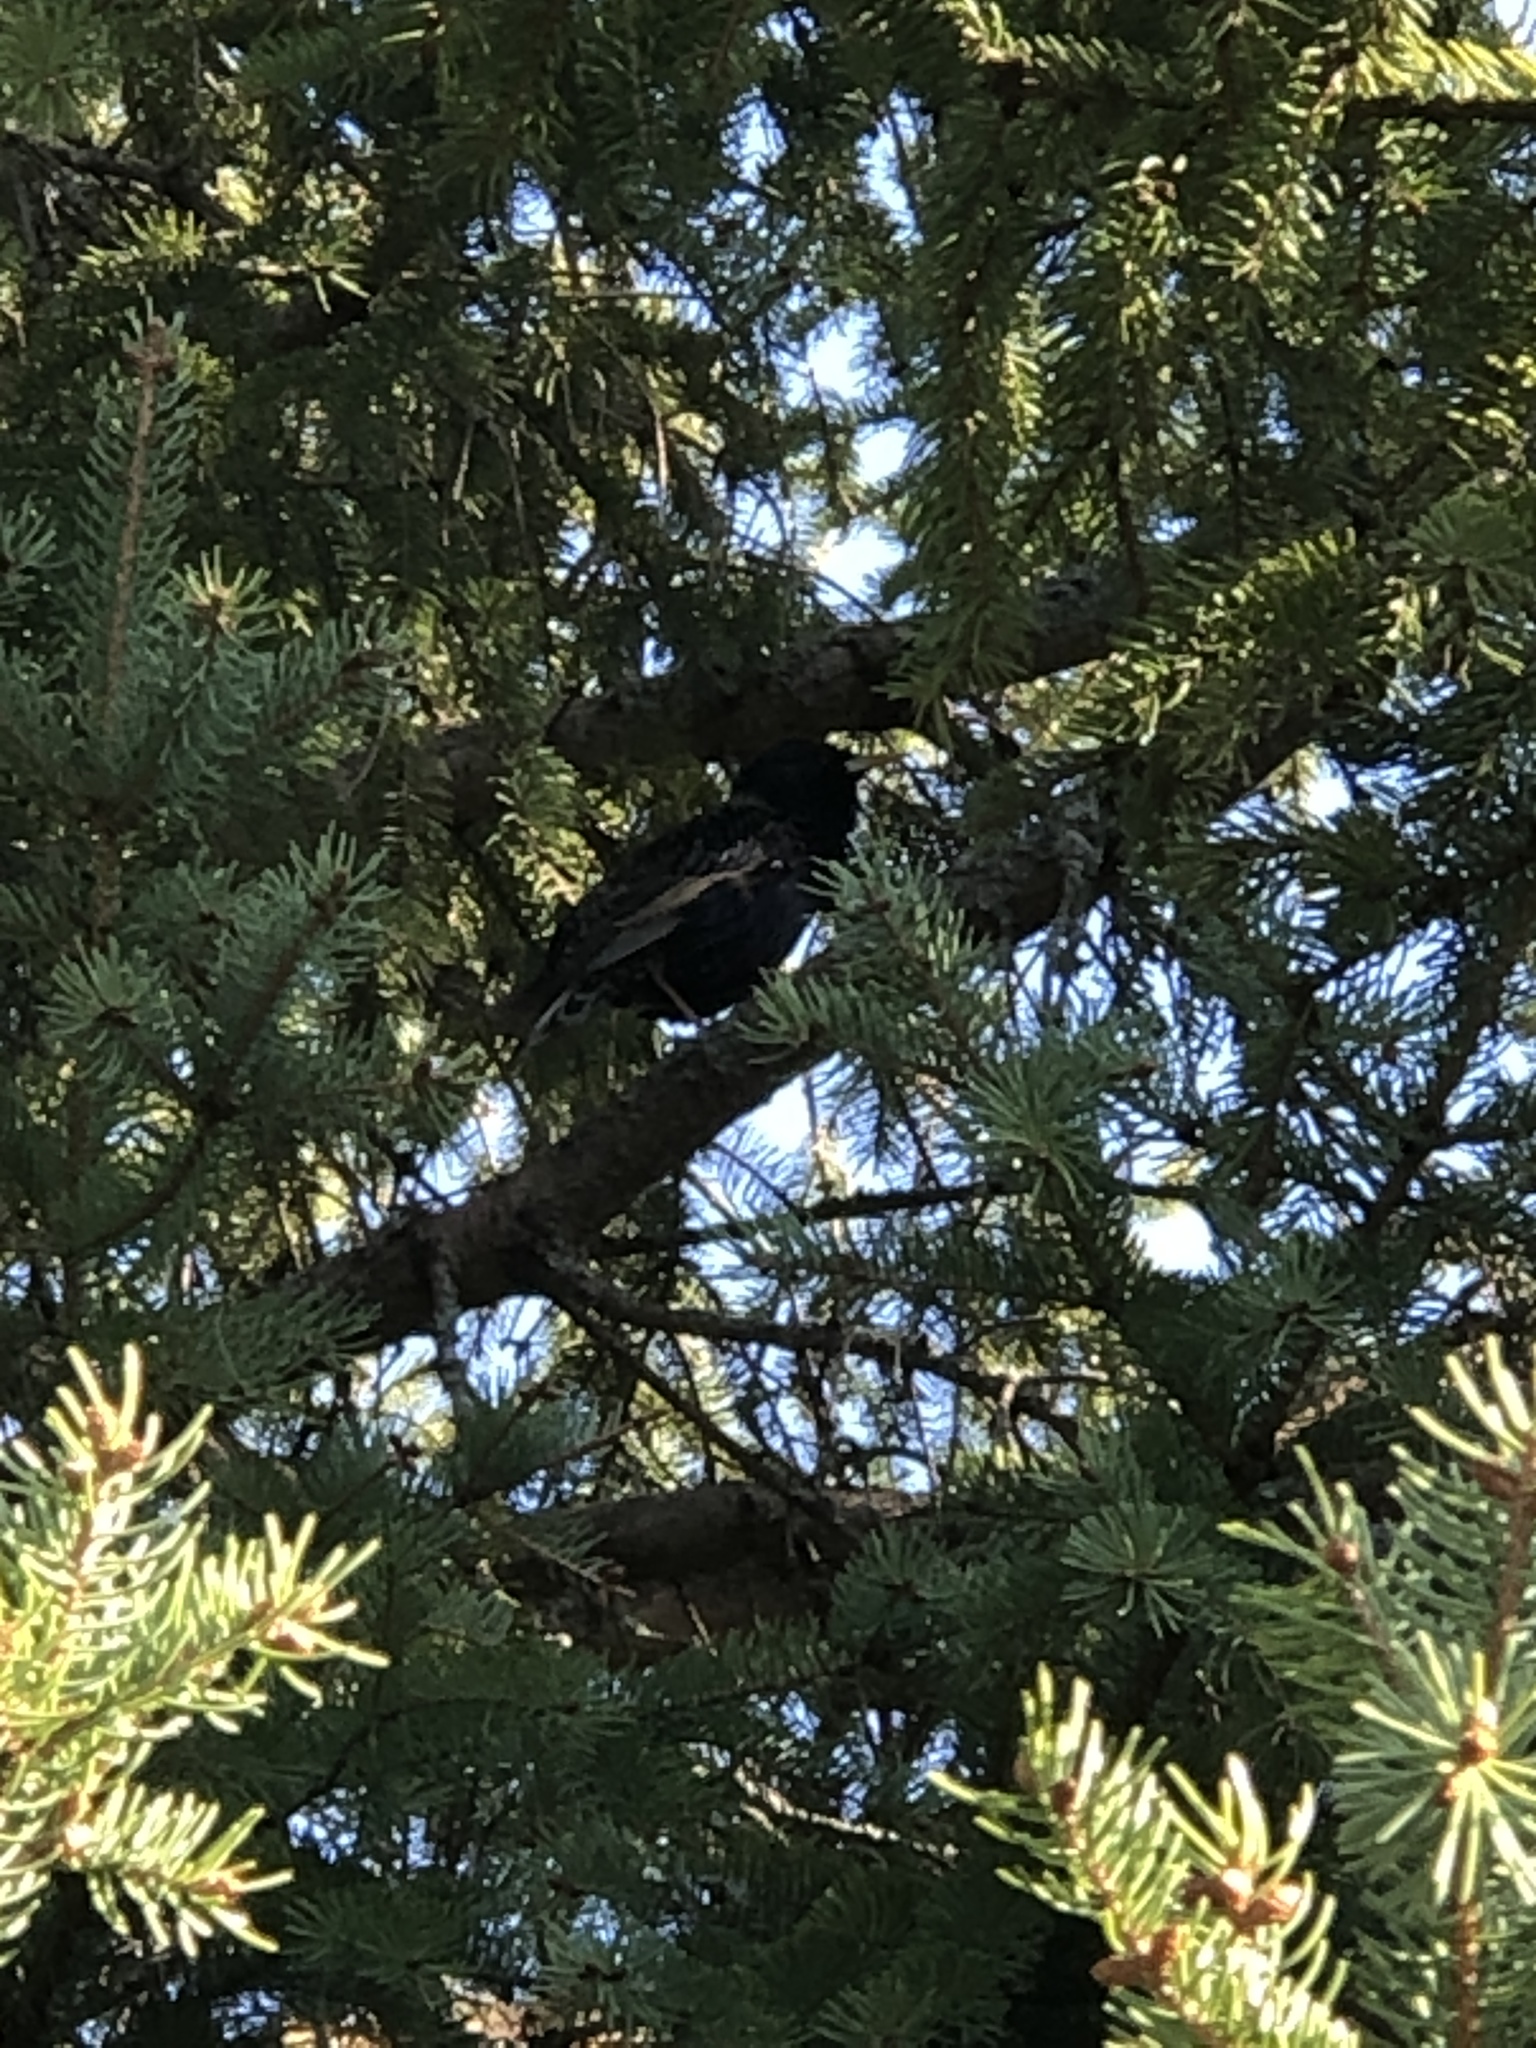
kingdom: Animalia
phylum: Chordata
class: Aves
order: Passeriformes
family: Sturnidae
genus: Sturnus
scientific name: Sturnus vulgaris
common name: Common starling
